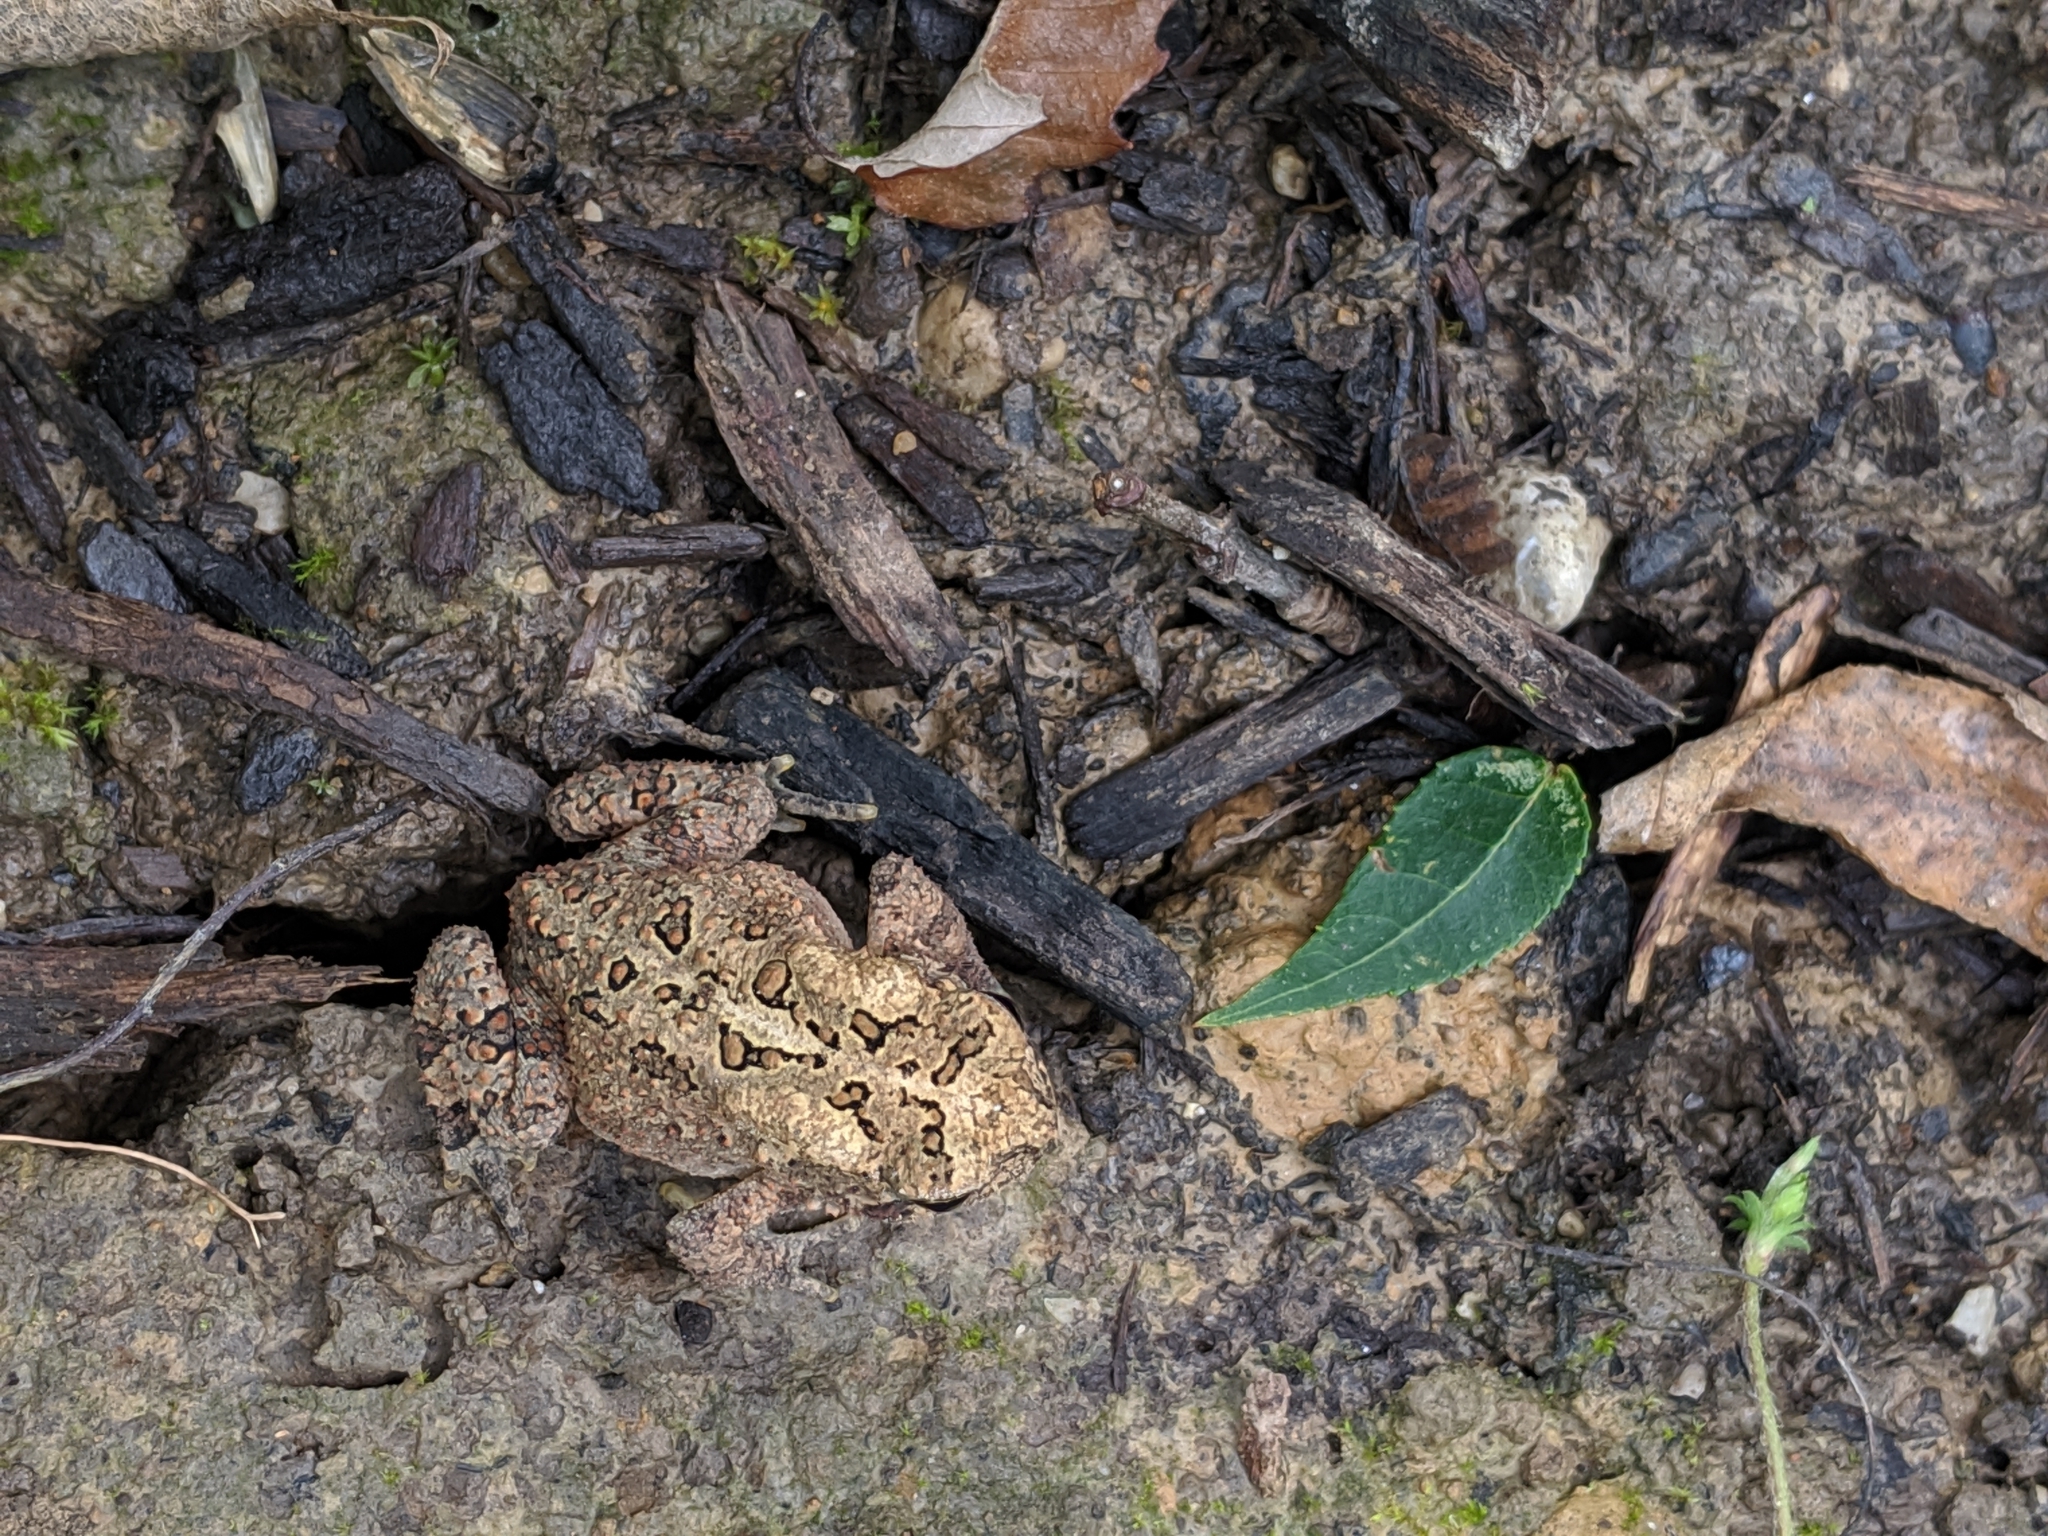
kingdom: Animalia
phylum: Chordata
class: Amphibia
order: Anura
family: Bufonidae
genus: Anaxyrus
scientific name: Anaxyrus americanus
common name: American toad
